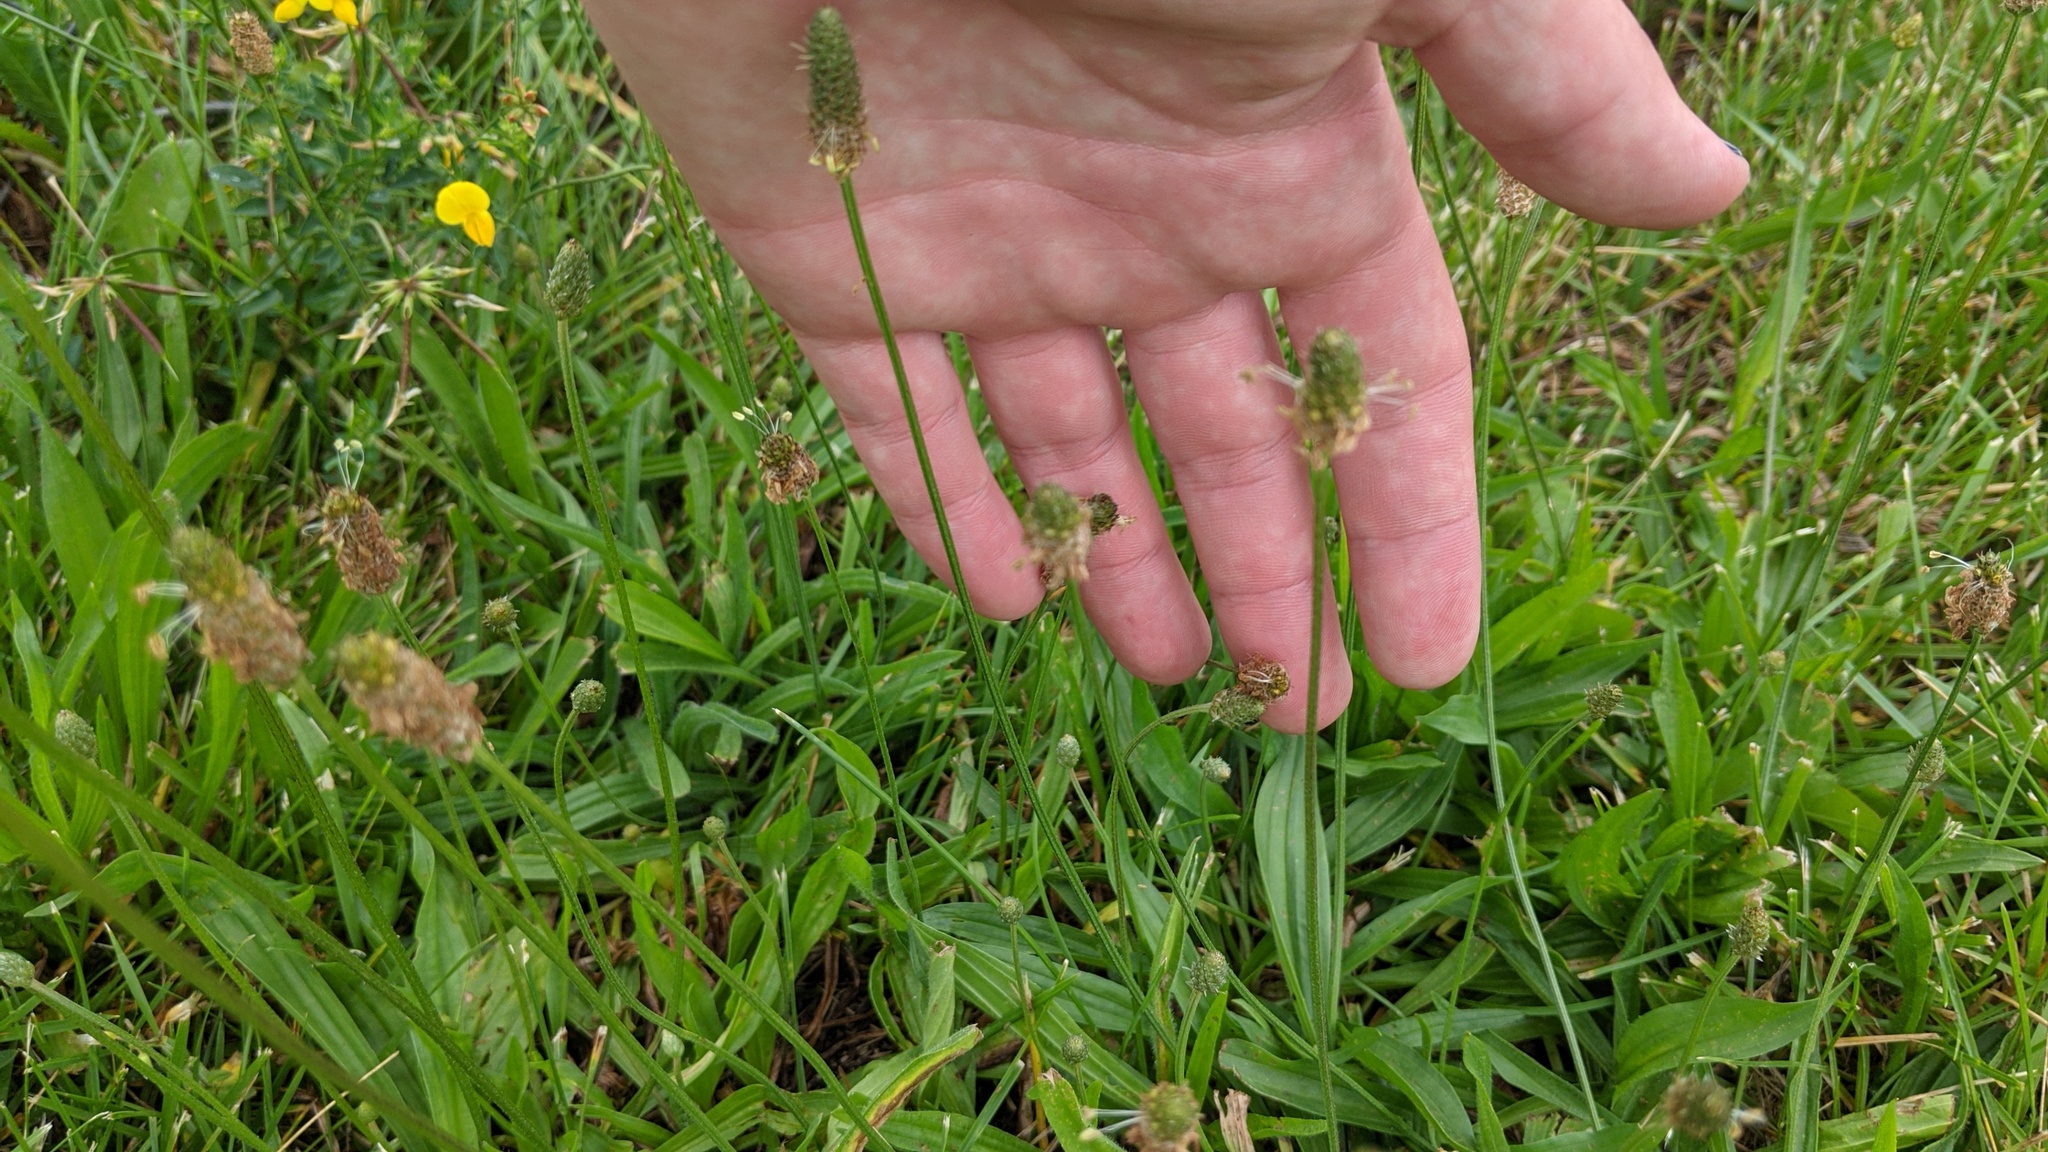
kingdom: Plantae
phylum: Tracheophyta
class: Magnoliopsida
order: Lamiales
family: Plantaginaceae
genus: Plantago
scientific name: Plantago lanceolata
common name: Ribwort plantain
